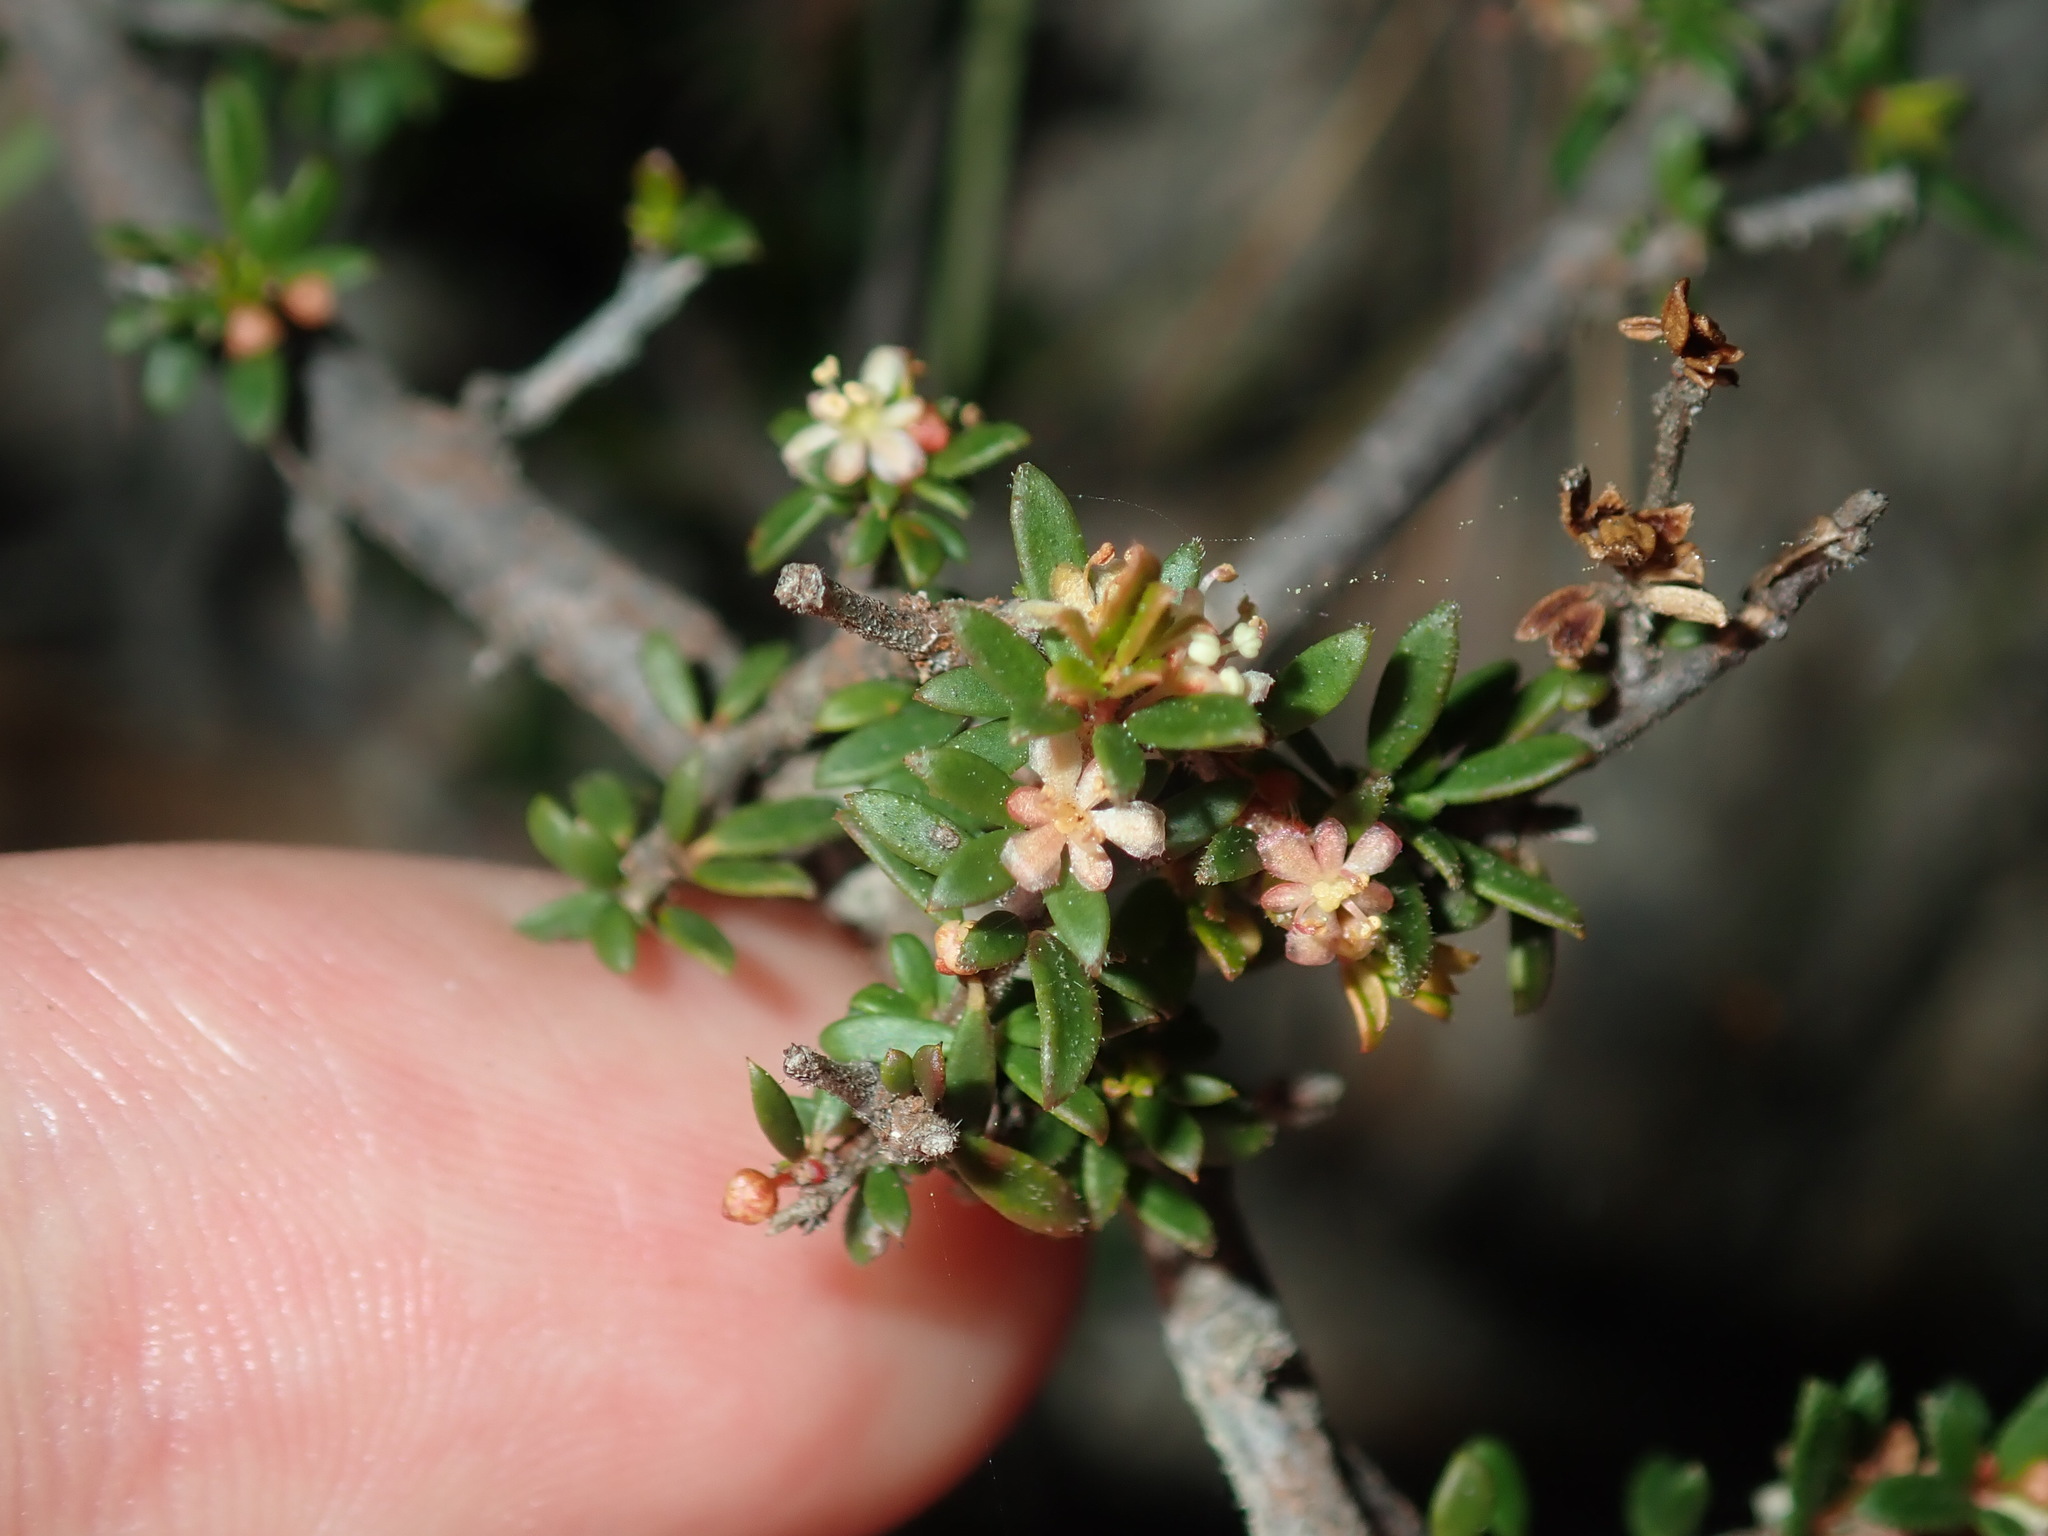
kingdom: Plantae
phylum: Tracheophyta
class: Magnoliopsida
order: Malpighiales
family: Picrodendraceae
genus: Micrantheum
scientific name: Micrantheum ericoides
